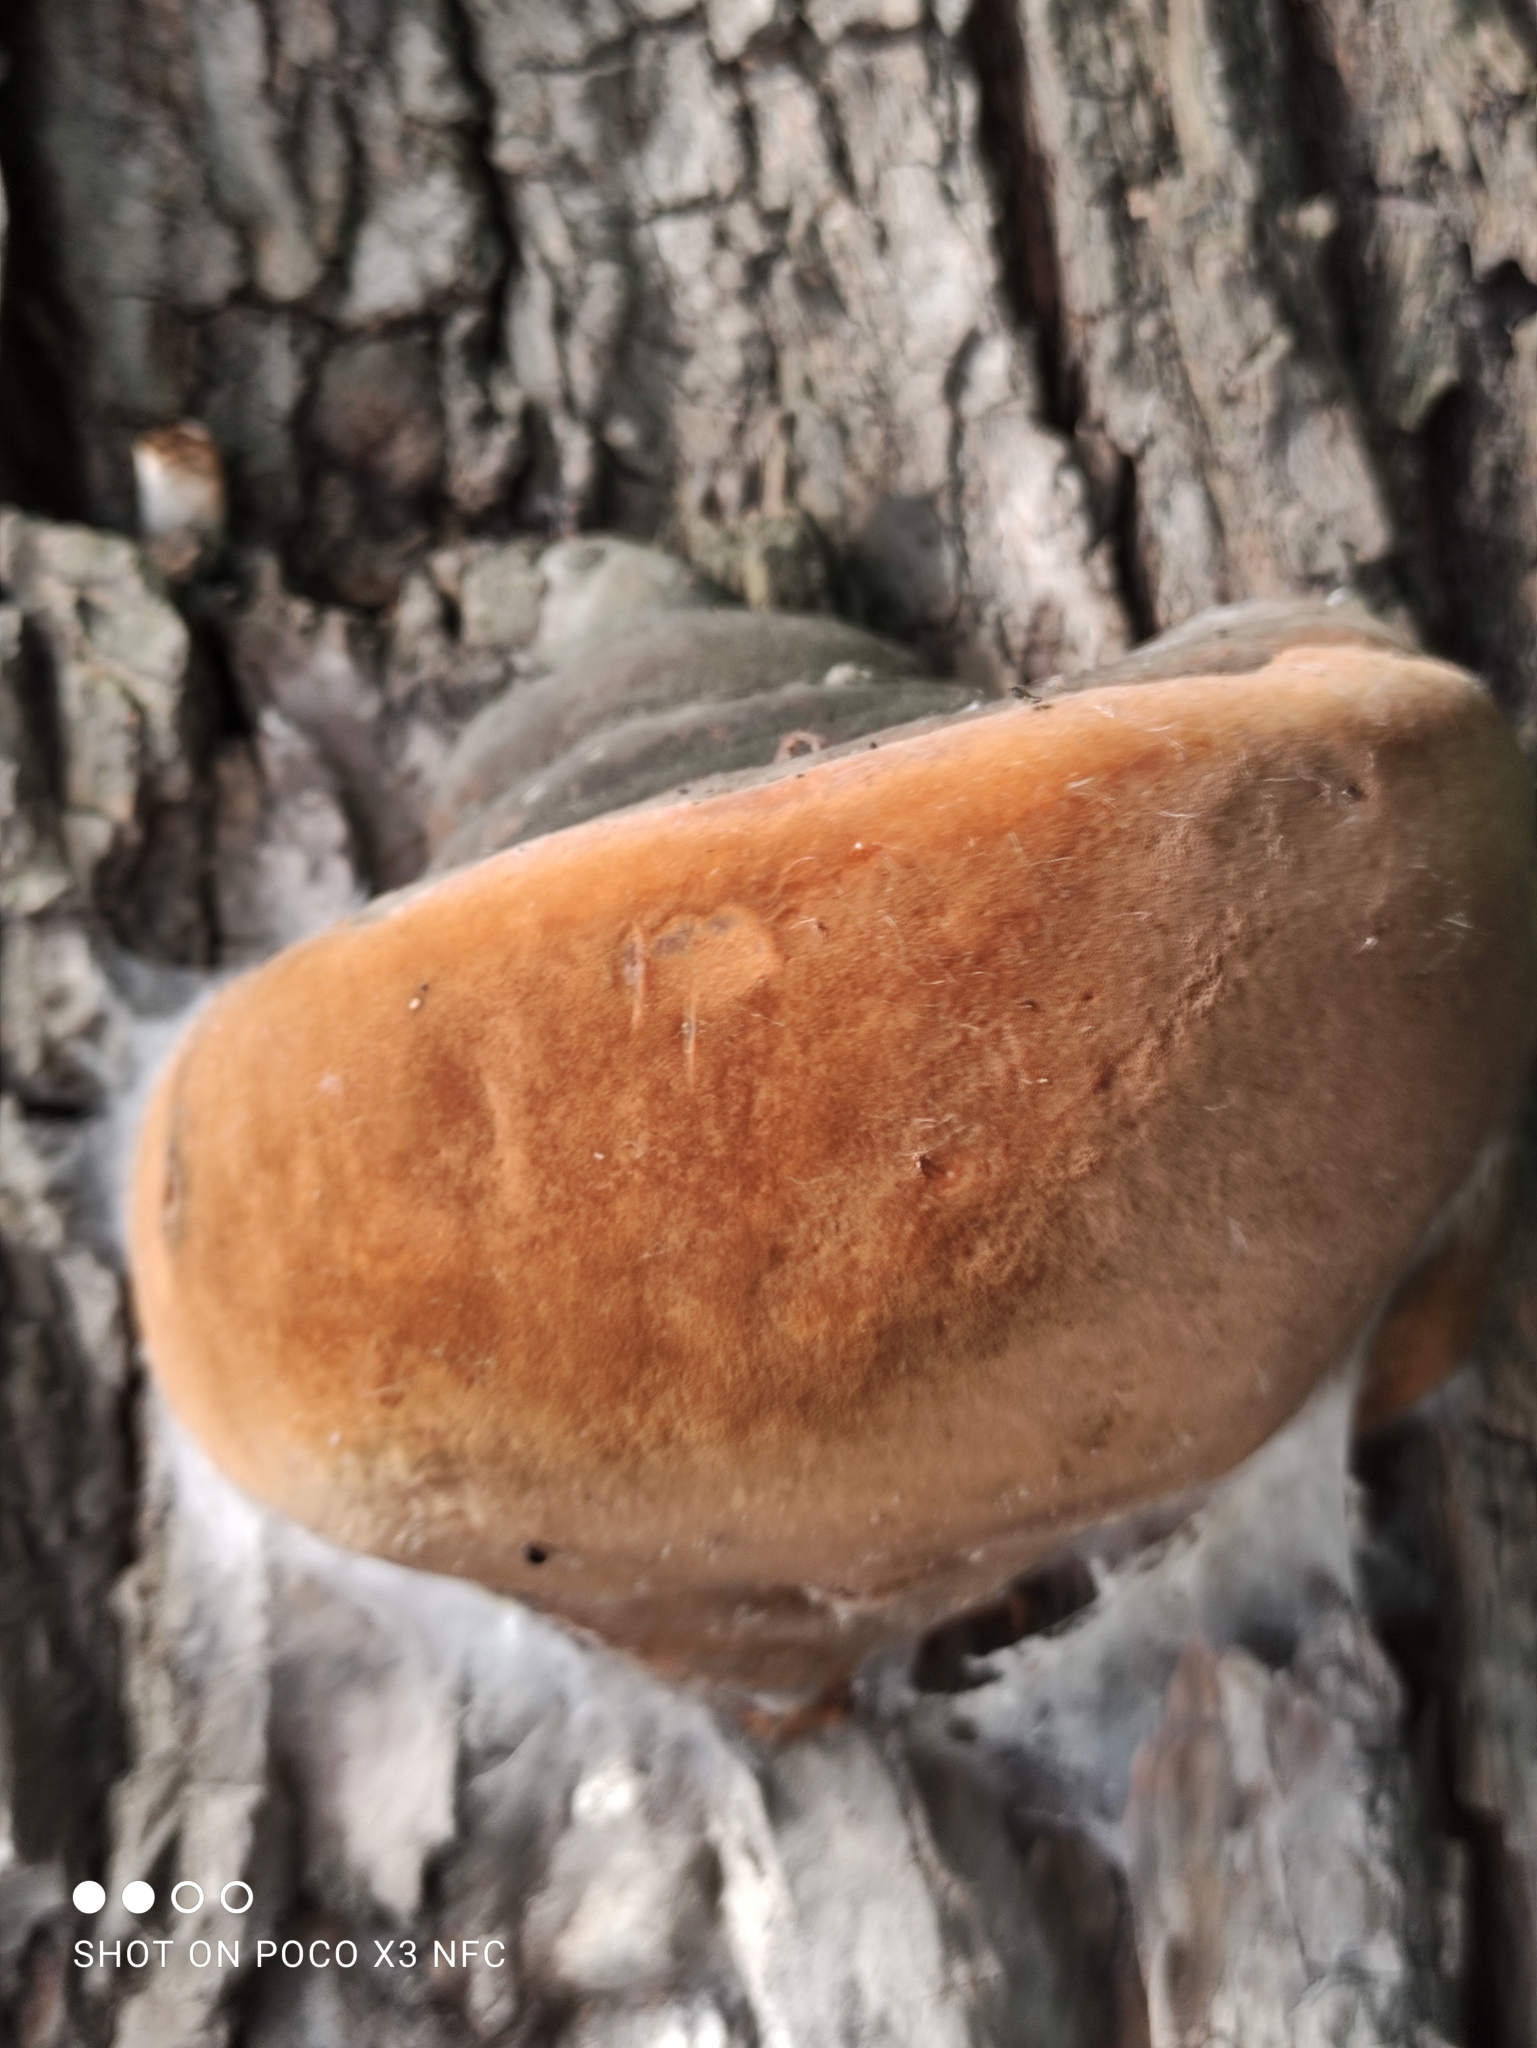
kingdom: Fungi
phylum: Basidiomycota
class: Agaricomycetes
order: Hymenochaetales
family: Hymenochaetaceae
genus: Fomitiporia
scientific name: Fomitiporia robusta
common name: Robust bracket
